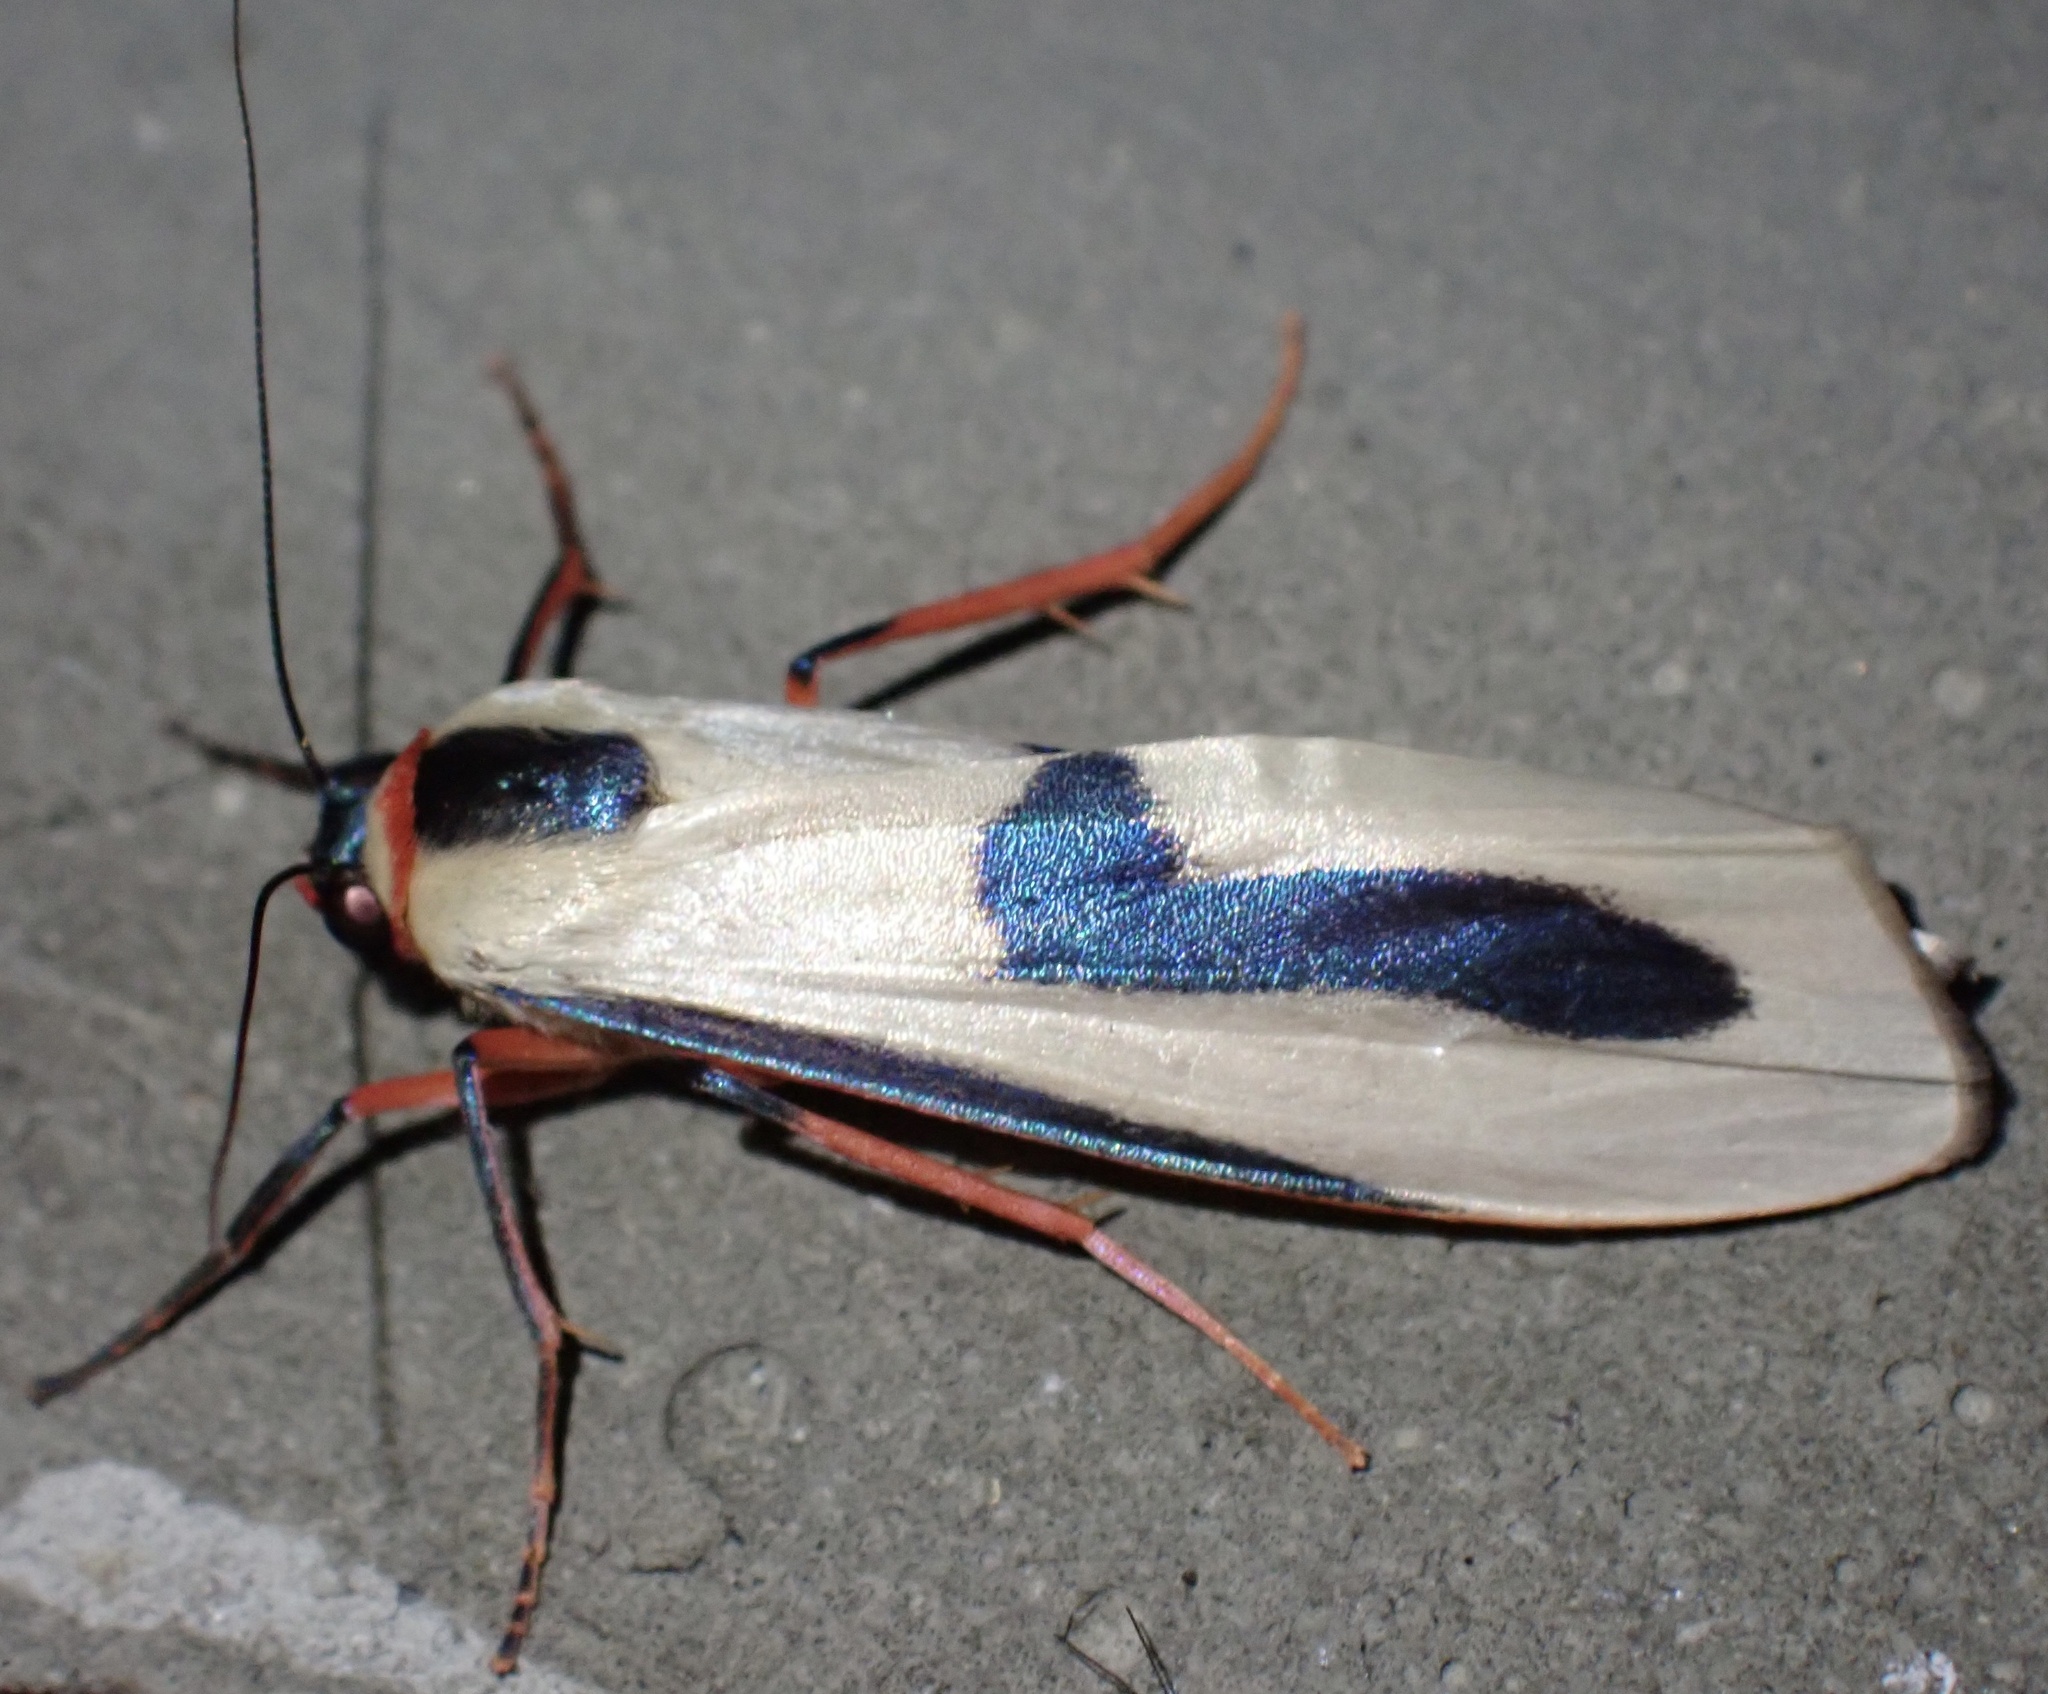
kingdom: Animalia
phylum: Arthropoda
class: Insecta
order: Lepidoptera
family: Erebidae
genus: Oeonistis
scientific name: Oeonistis bicolora
